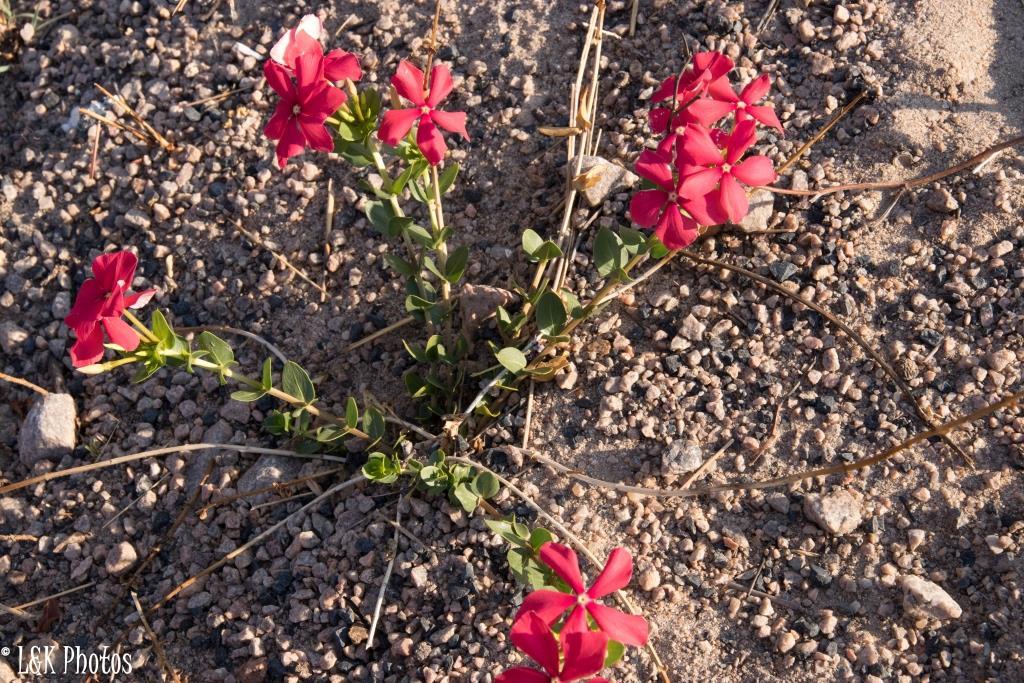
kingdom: Plantae
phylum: Tracheophyta
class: Magnoliopsida
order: Gentianales
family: Apocynaceae
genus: Catharanthus
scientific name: Catharanthus ovalis
